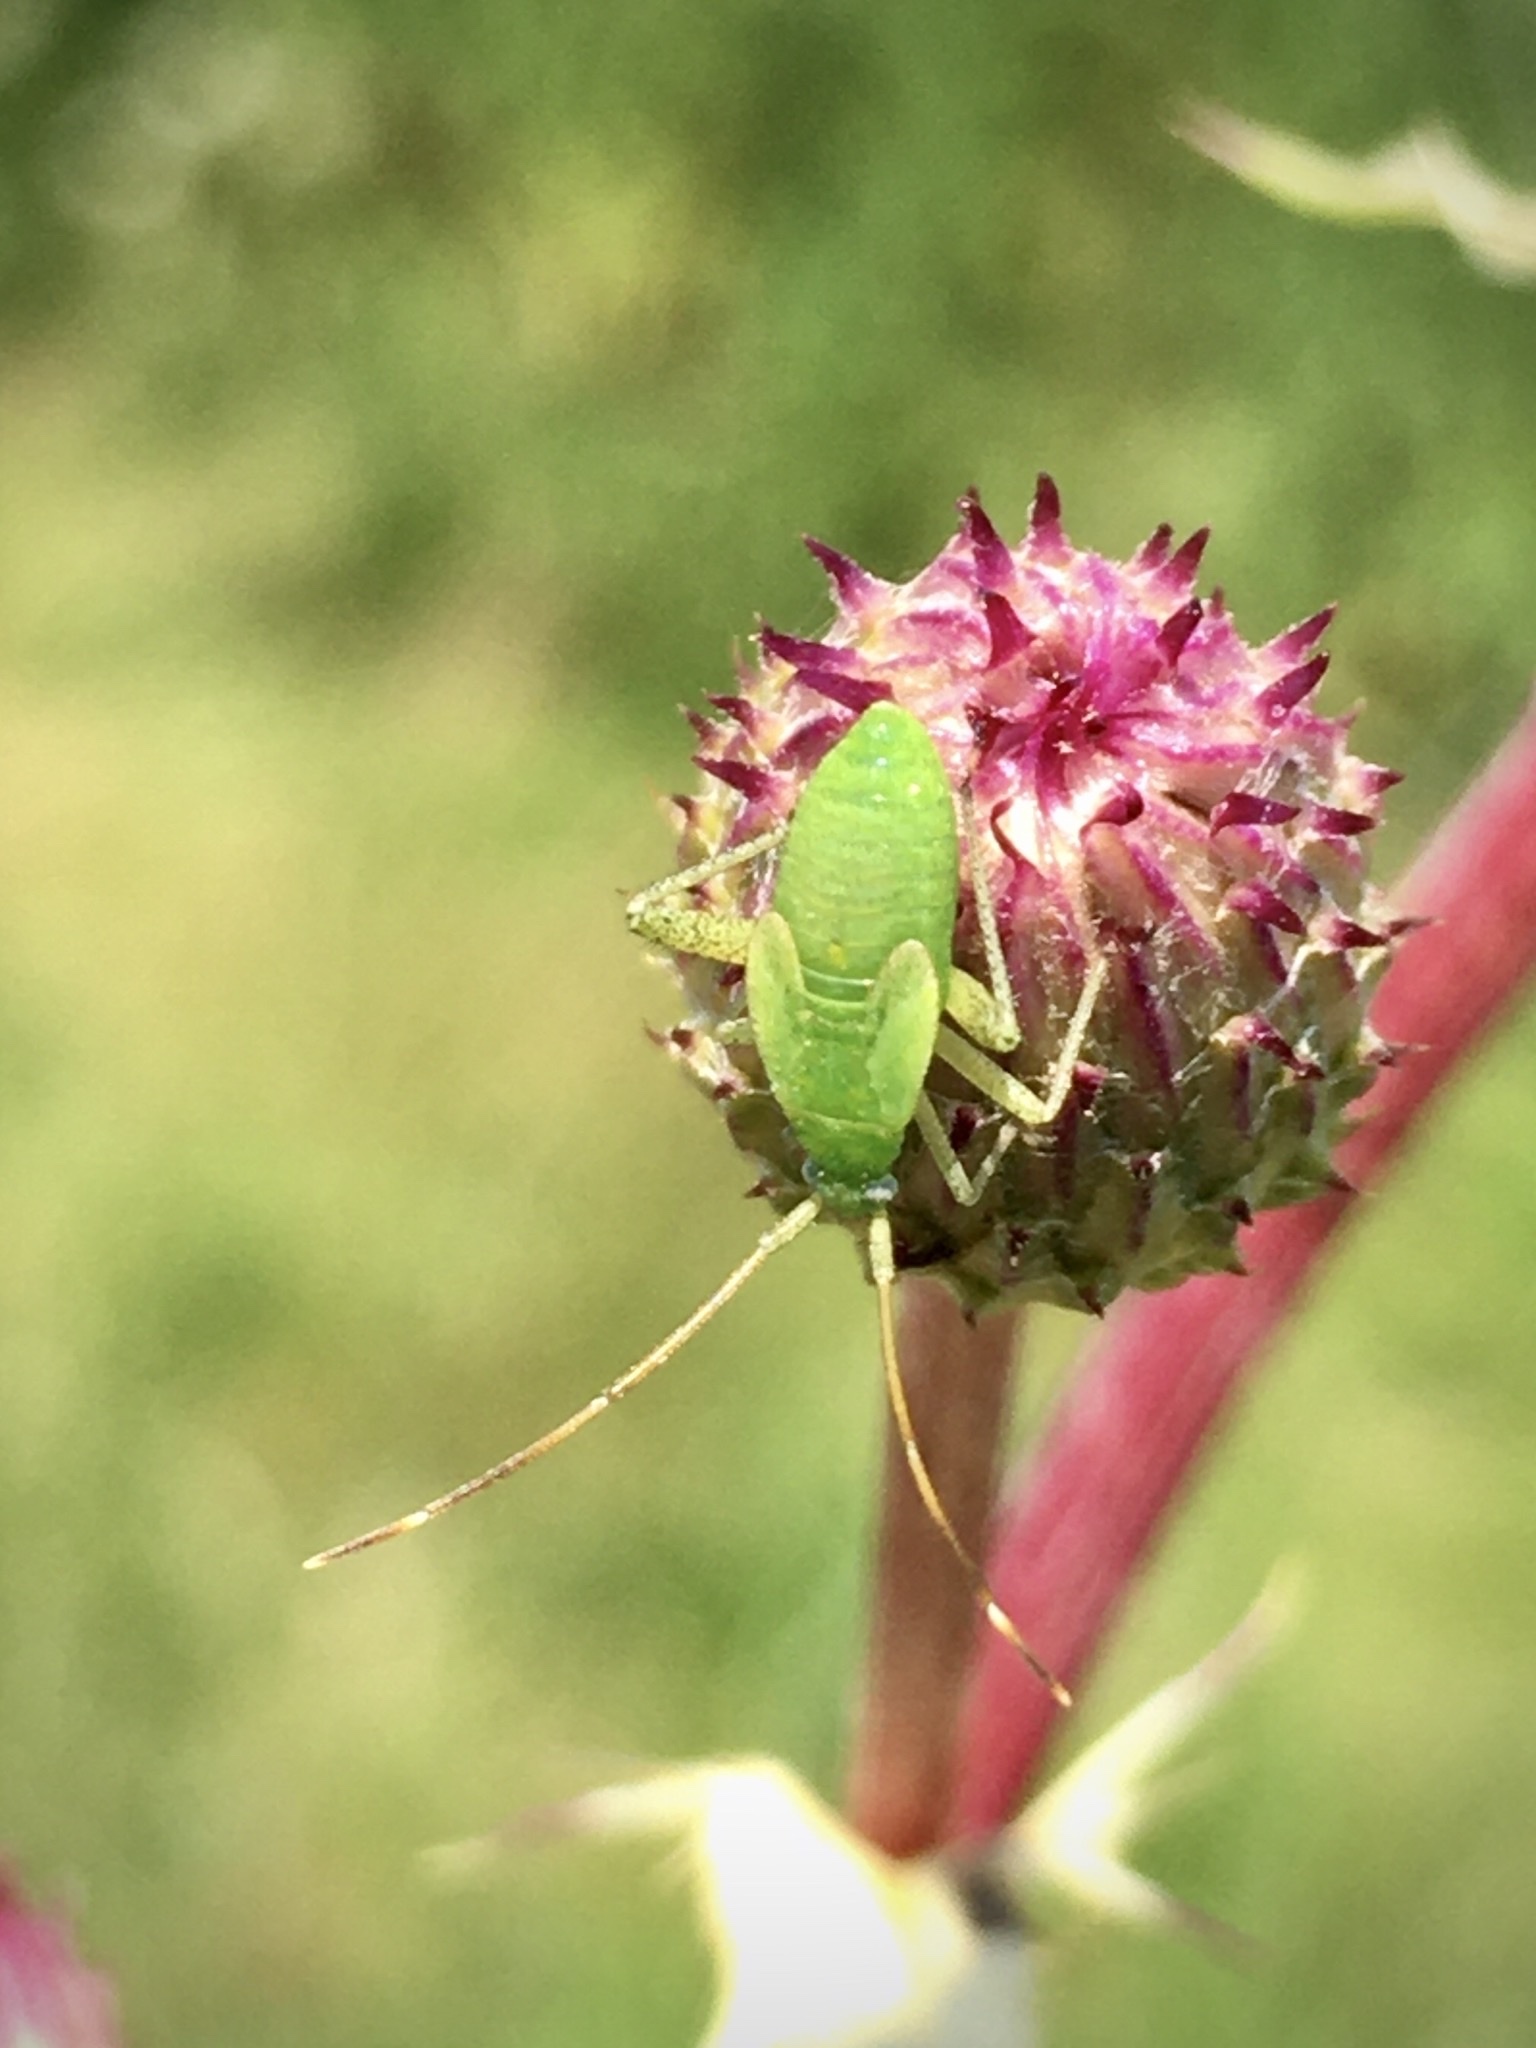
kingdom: Animalia
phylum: Arthropoda
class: Insecta
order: Hemiptera
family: Miridae
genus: Adelphocoris
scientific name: Adelphocoris
